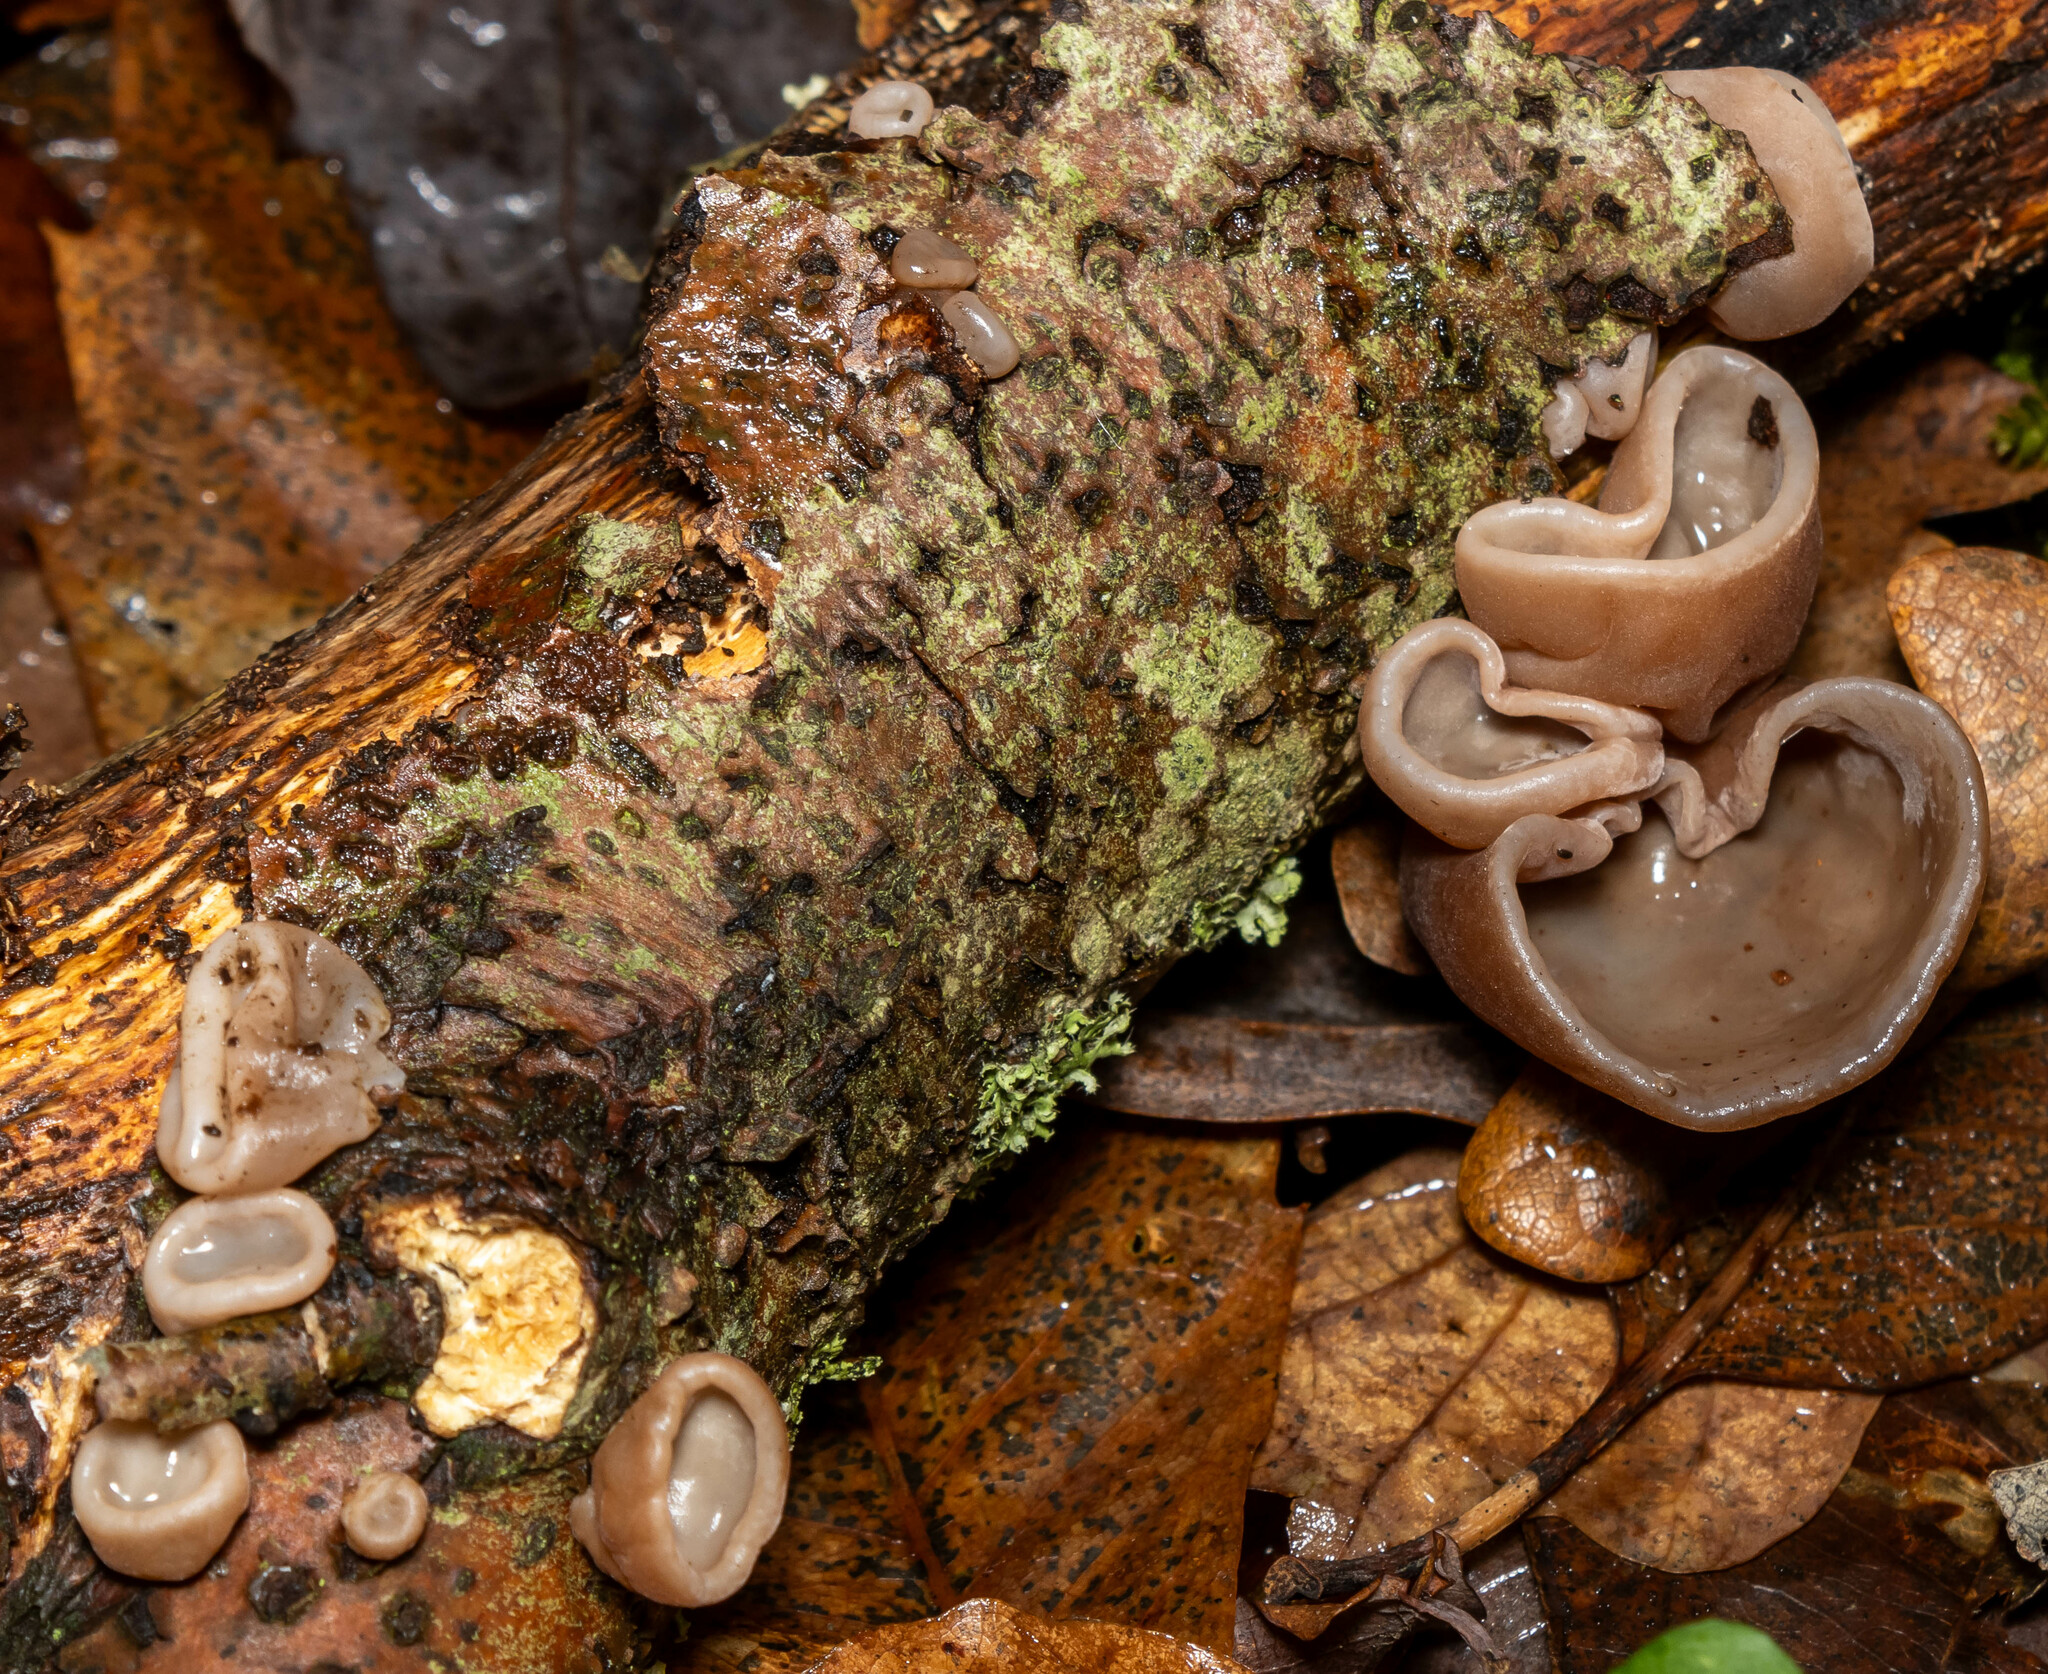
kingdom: Fungi
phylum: Basidiomycota
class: Agaricomycetes
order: Auriculariales
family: Auriculariaceae
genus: Auricularia
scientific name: Auricularia auricula-judae
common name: Jelly ear
